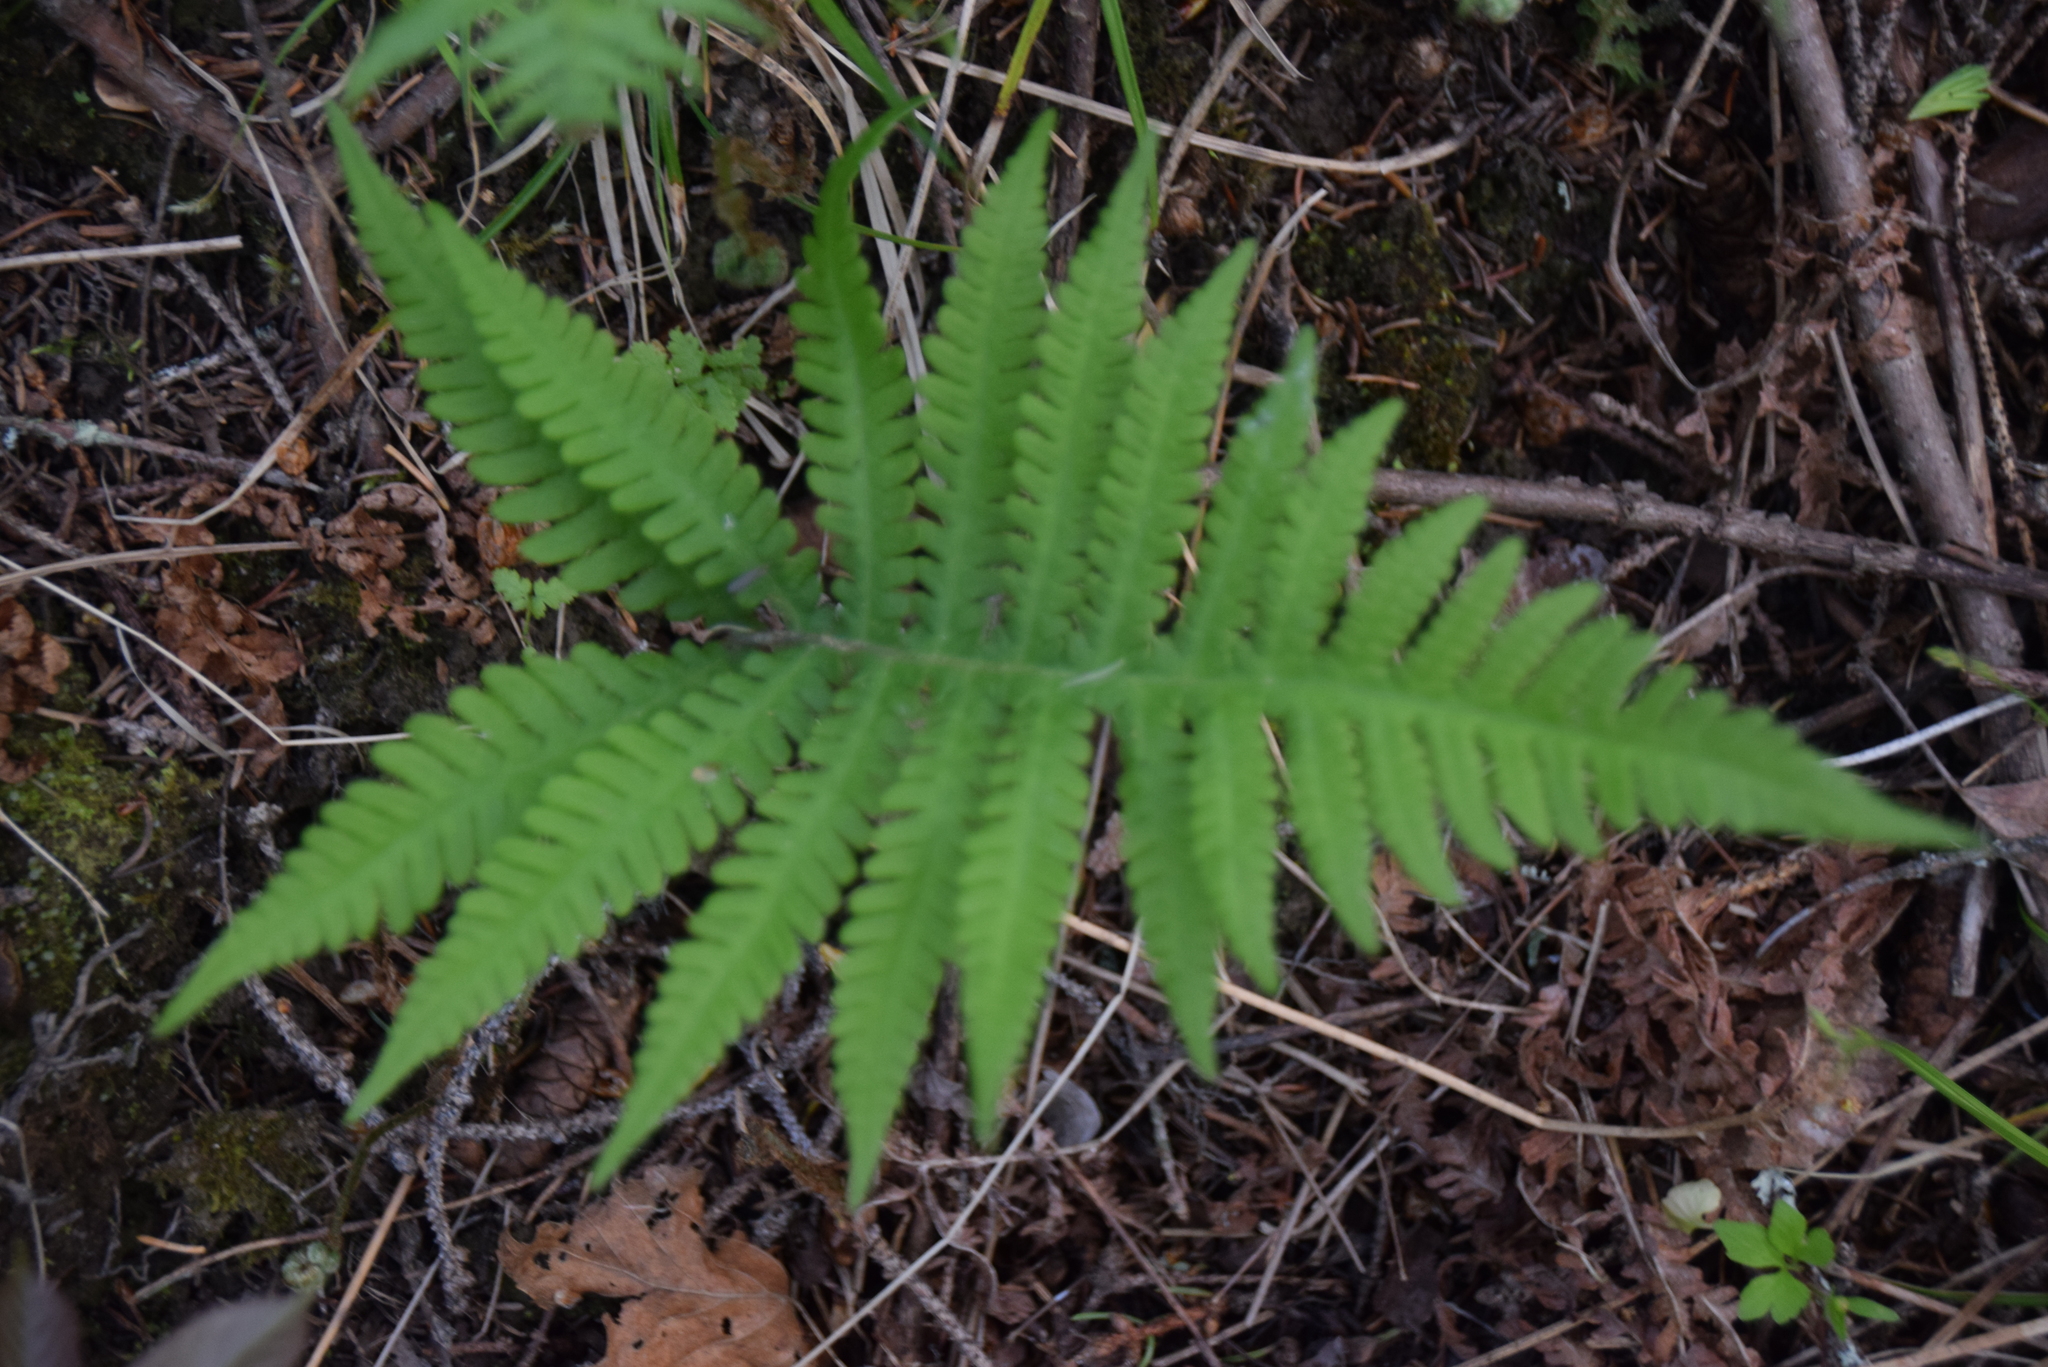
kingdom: Plantae
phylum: Tracheophyta
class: Polypodiopsida
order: Polypodiales
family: Thelypteridaceae
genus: Phegopteris
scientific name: Phegopteris connectilis
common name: Beech fern
